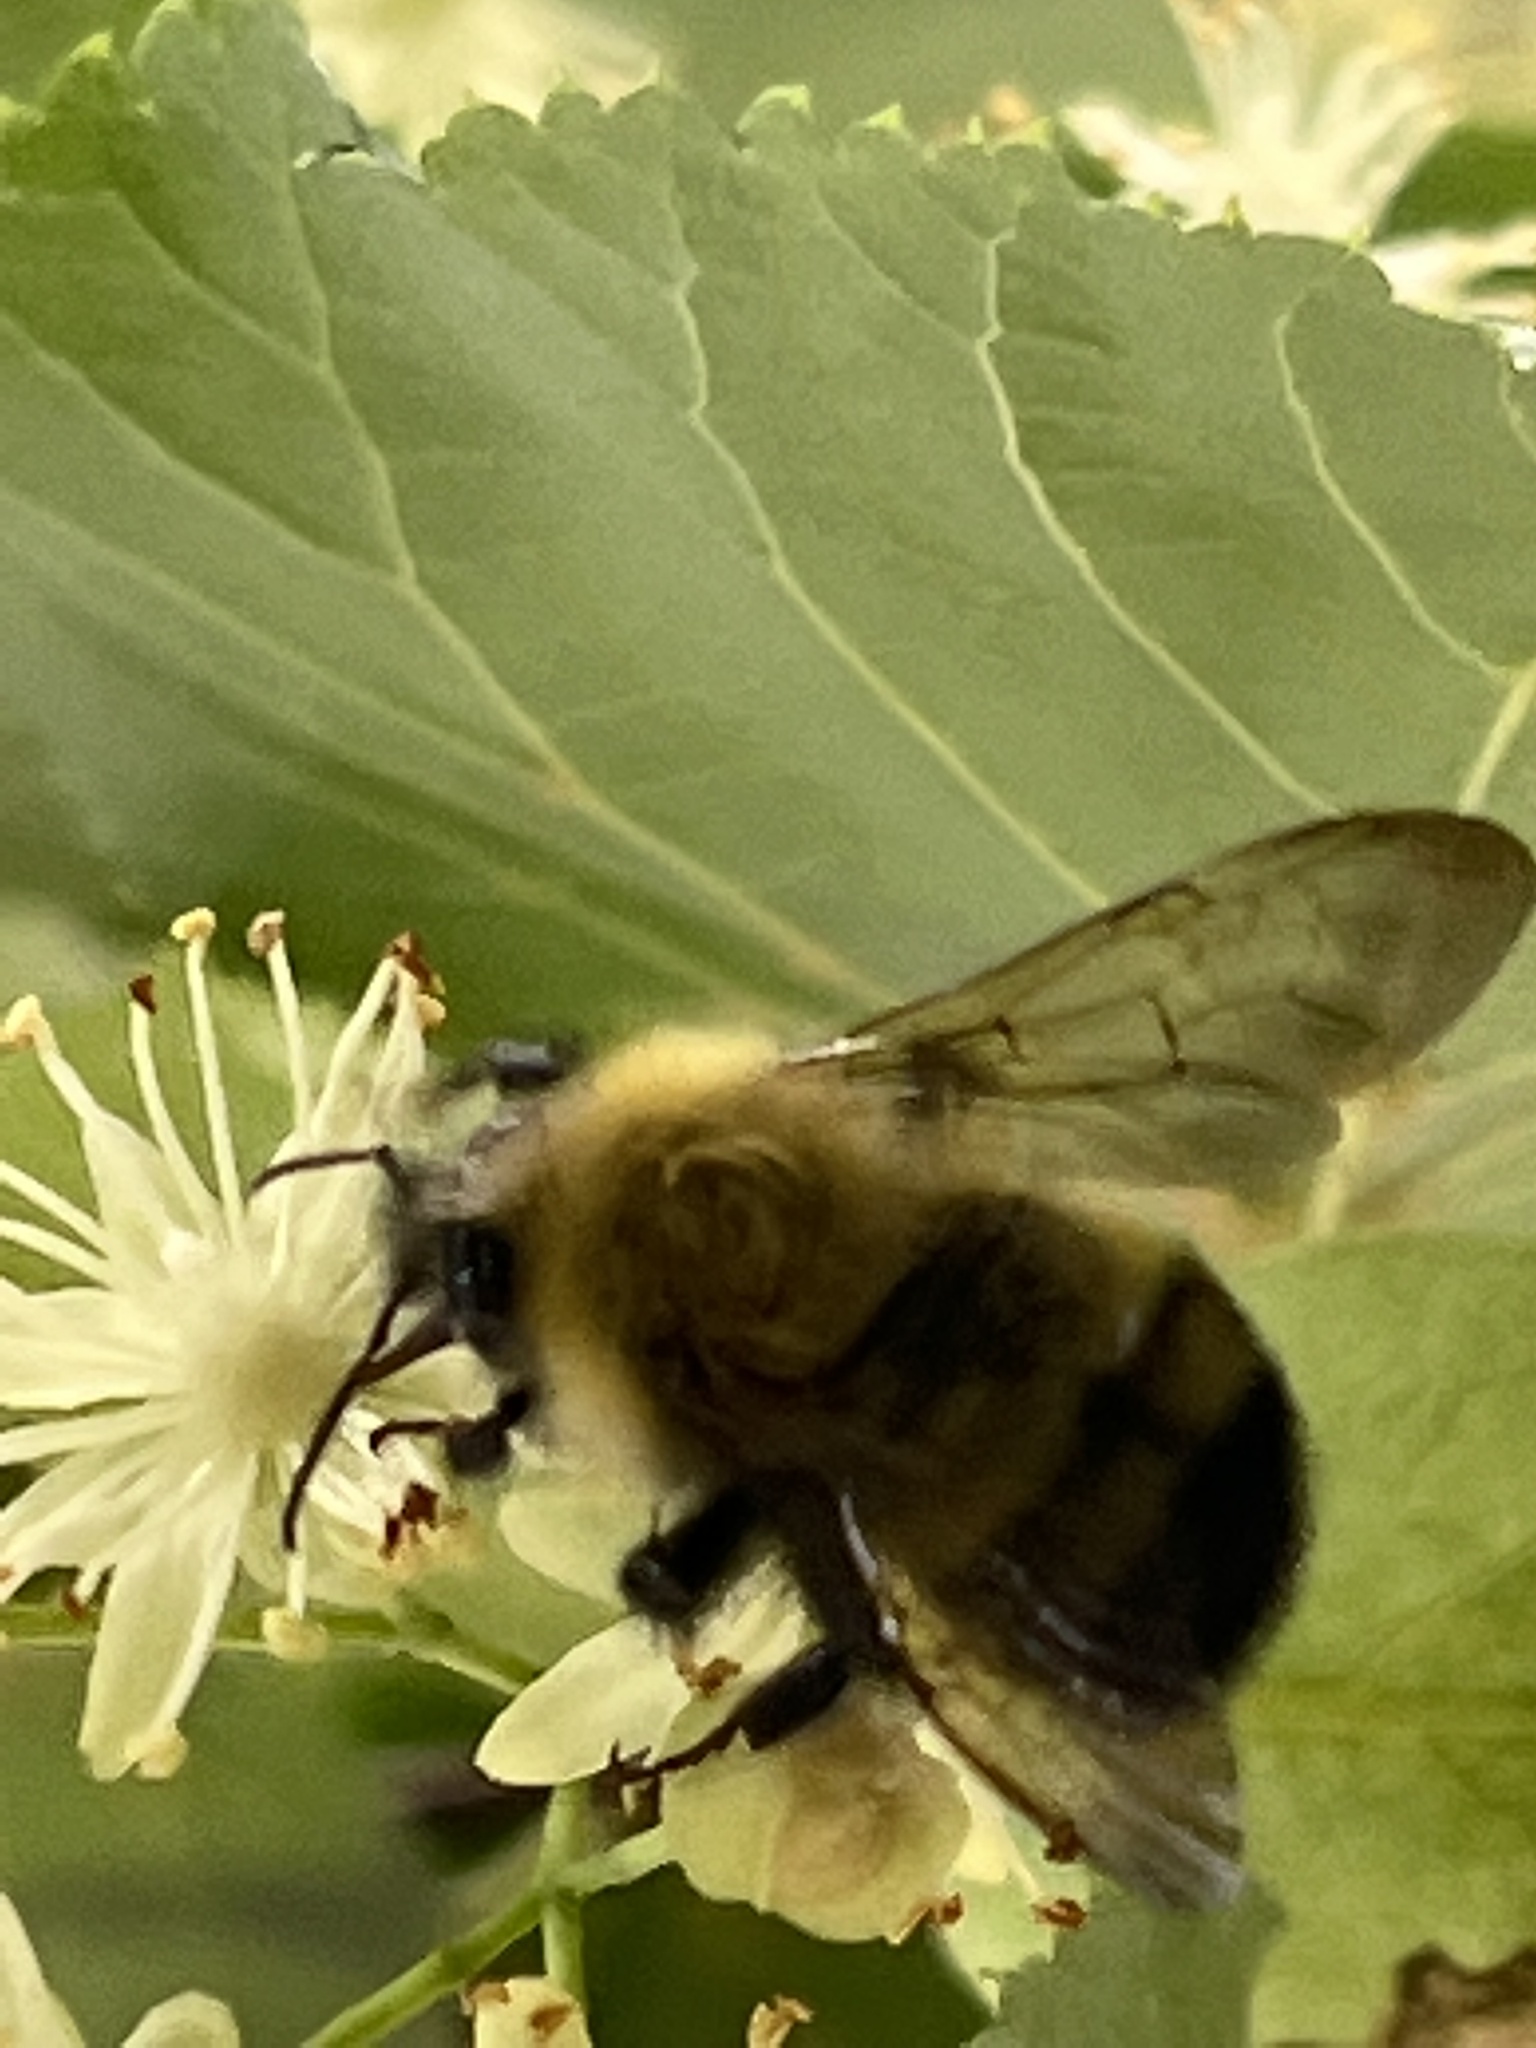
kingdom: Animalia
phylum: Arthropoda
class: Insecta
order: Hymenoptera
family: Apidae
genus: Bombus
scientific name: Bombus perplexus
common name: Confusing bumble bee
